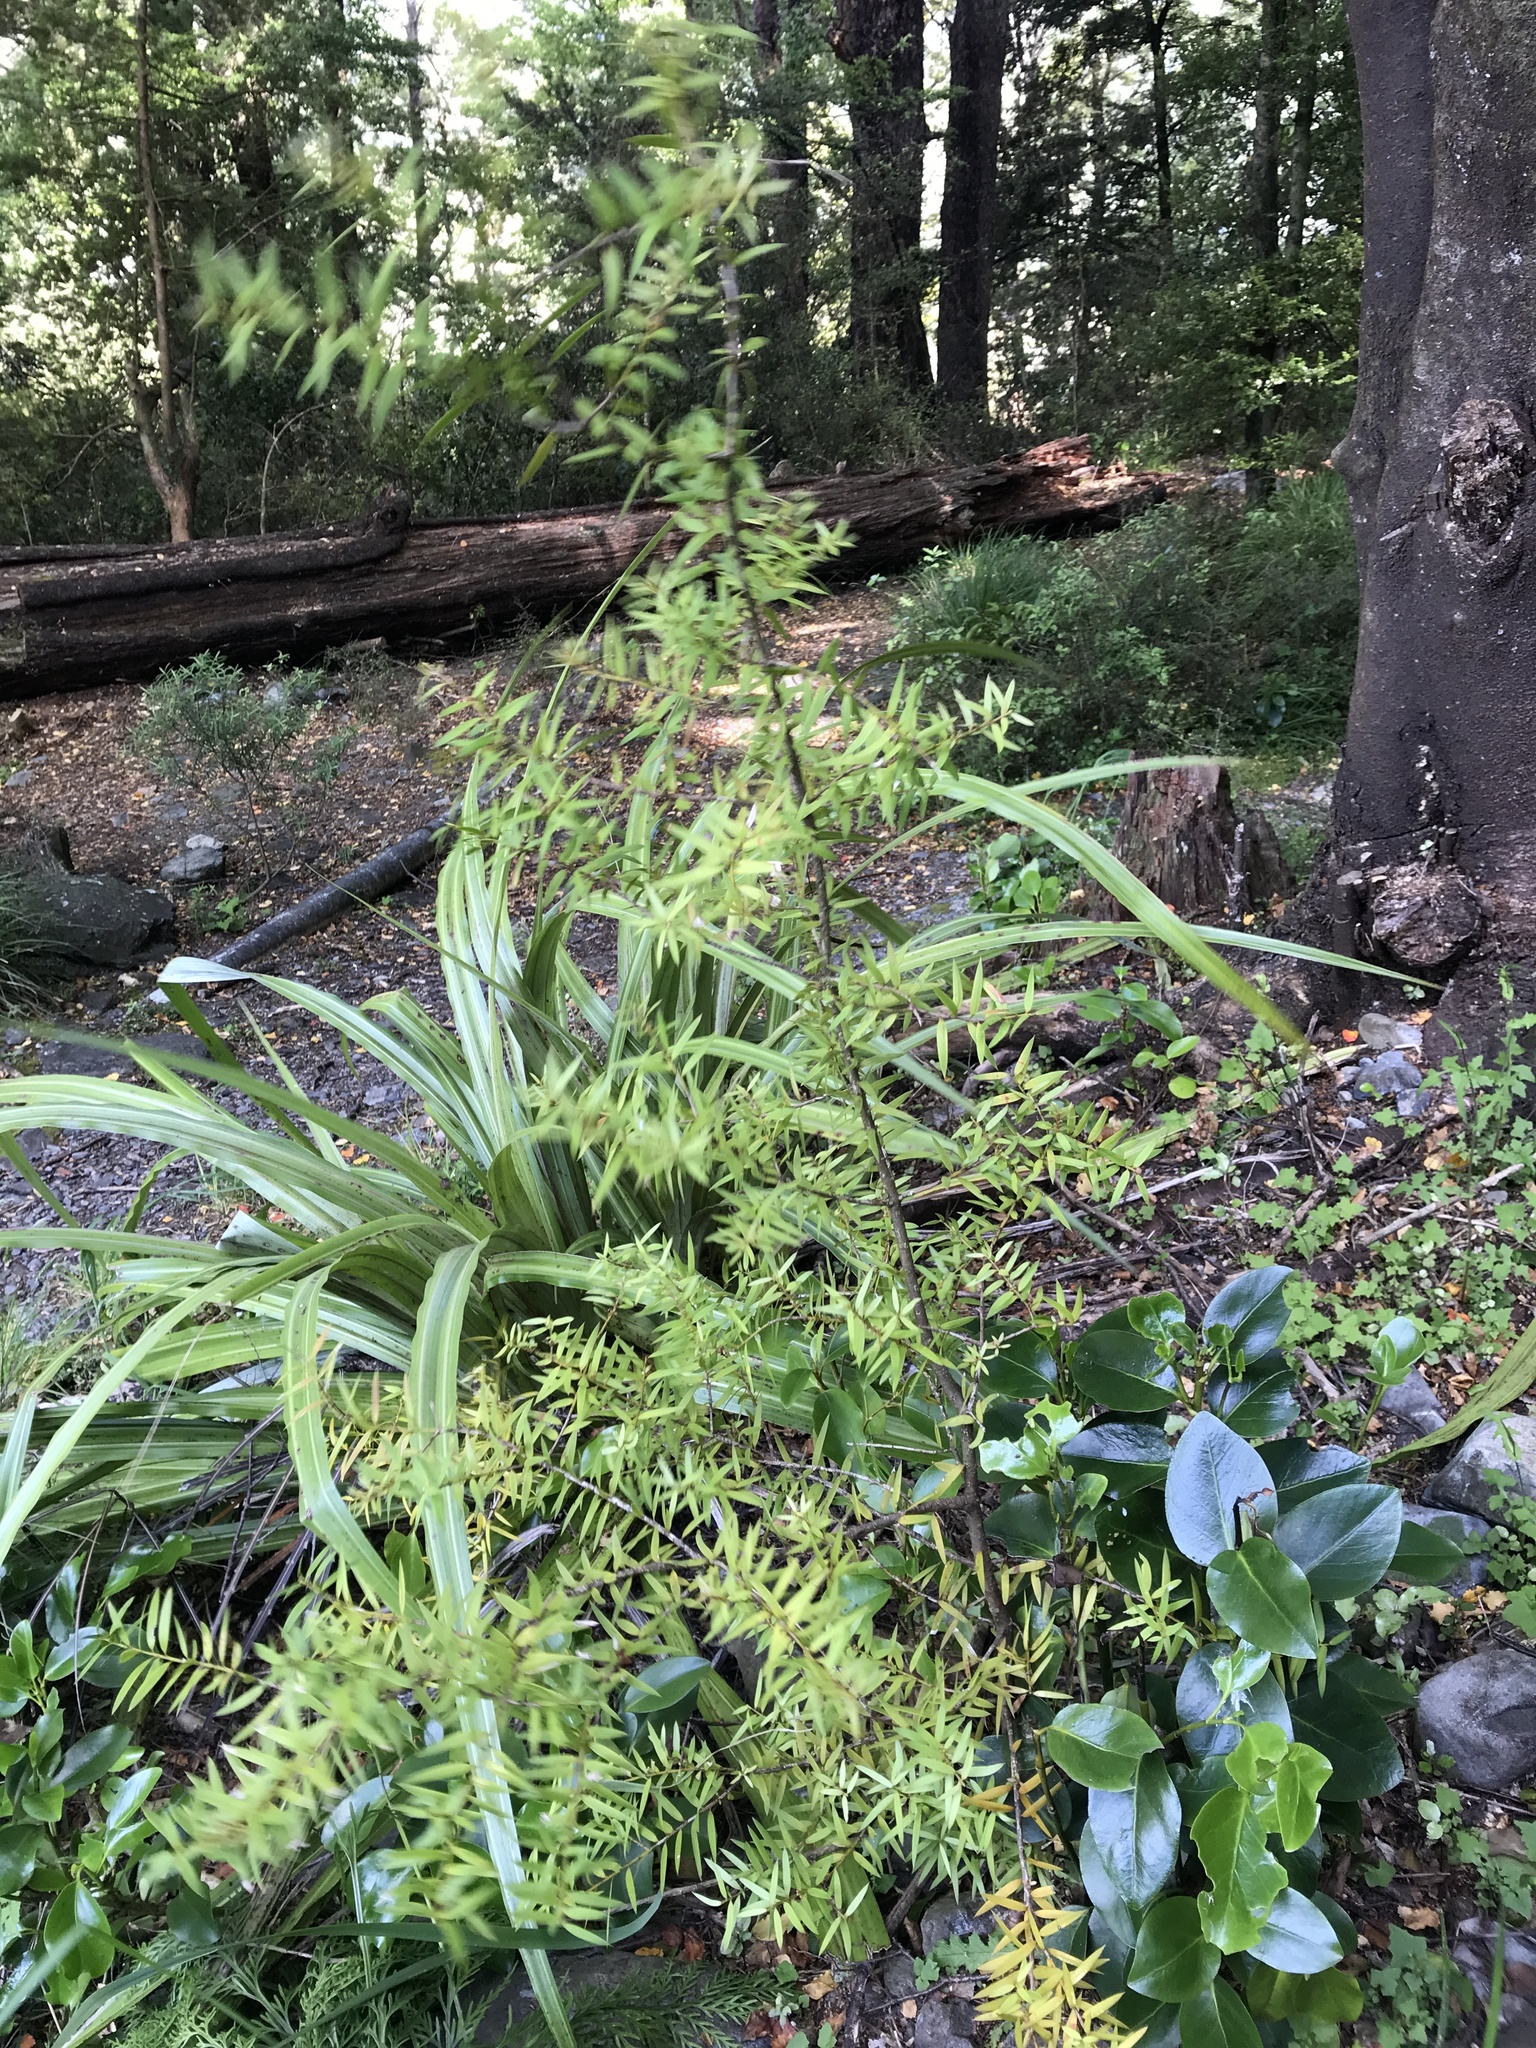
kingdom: Plantae
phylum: Tracheophyta
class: Pinopsida
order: Pinales
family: Podocarpaceae
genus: Podocarpus
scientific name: Podocarpus laetus
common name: Hall's totara
